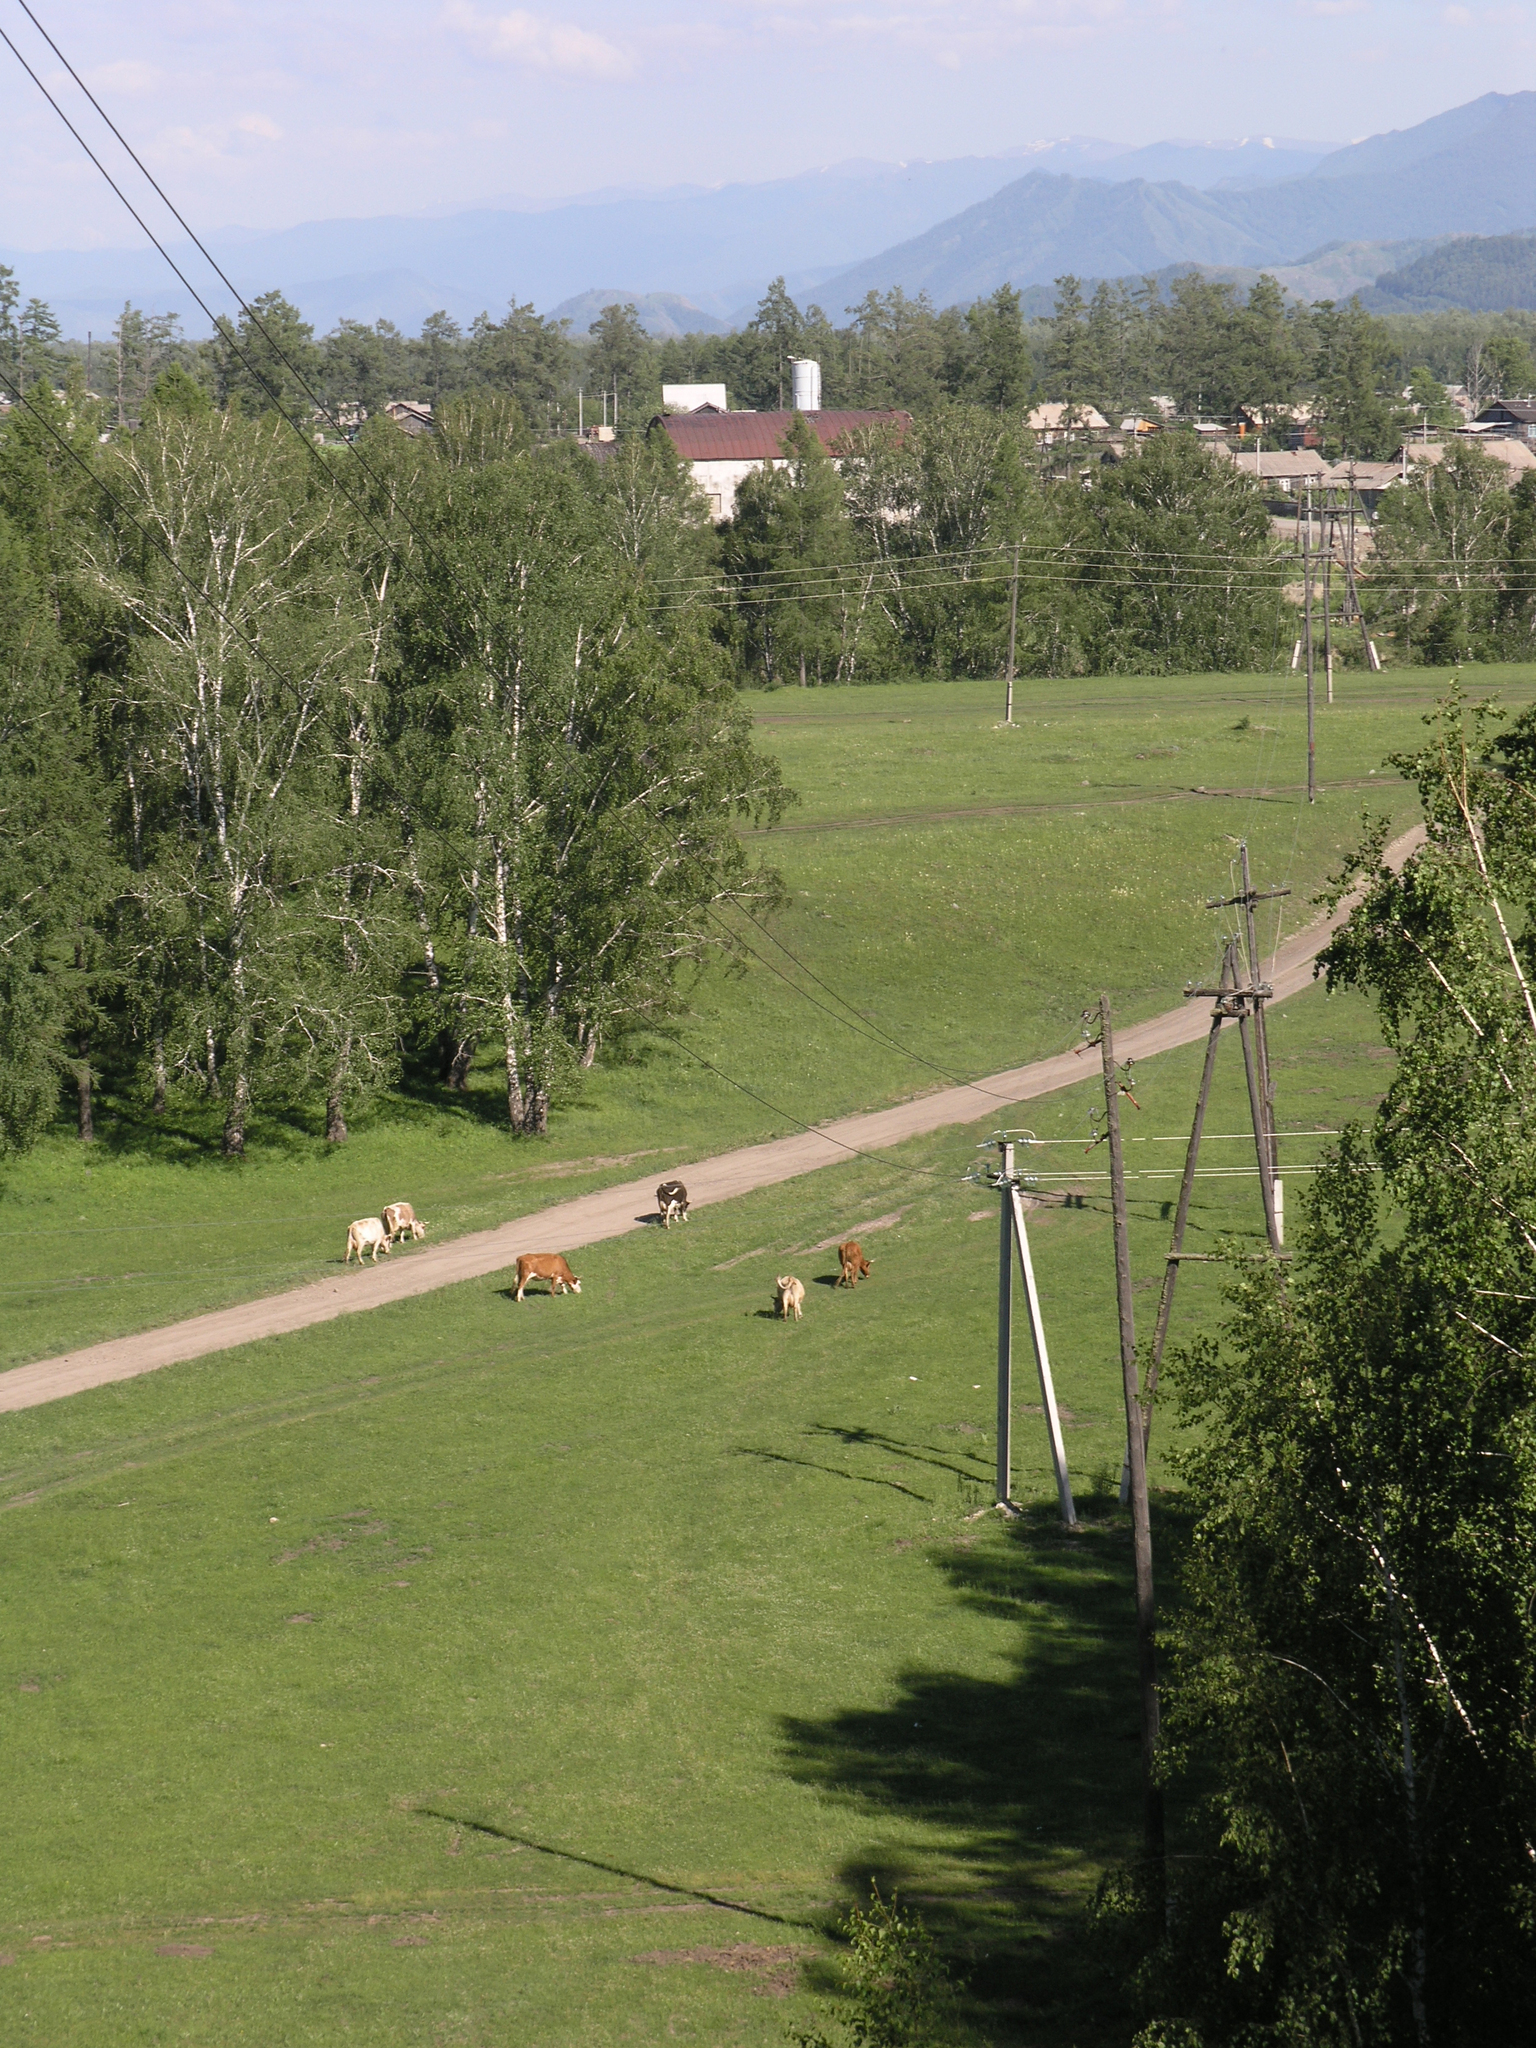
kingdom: Plantae
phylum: Tracheophyta
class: Magnoliopsida
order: Fagales
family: Betulaceae
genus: Betula
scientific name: Betula pendula
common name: Silver birch
